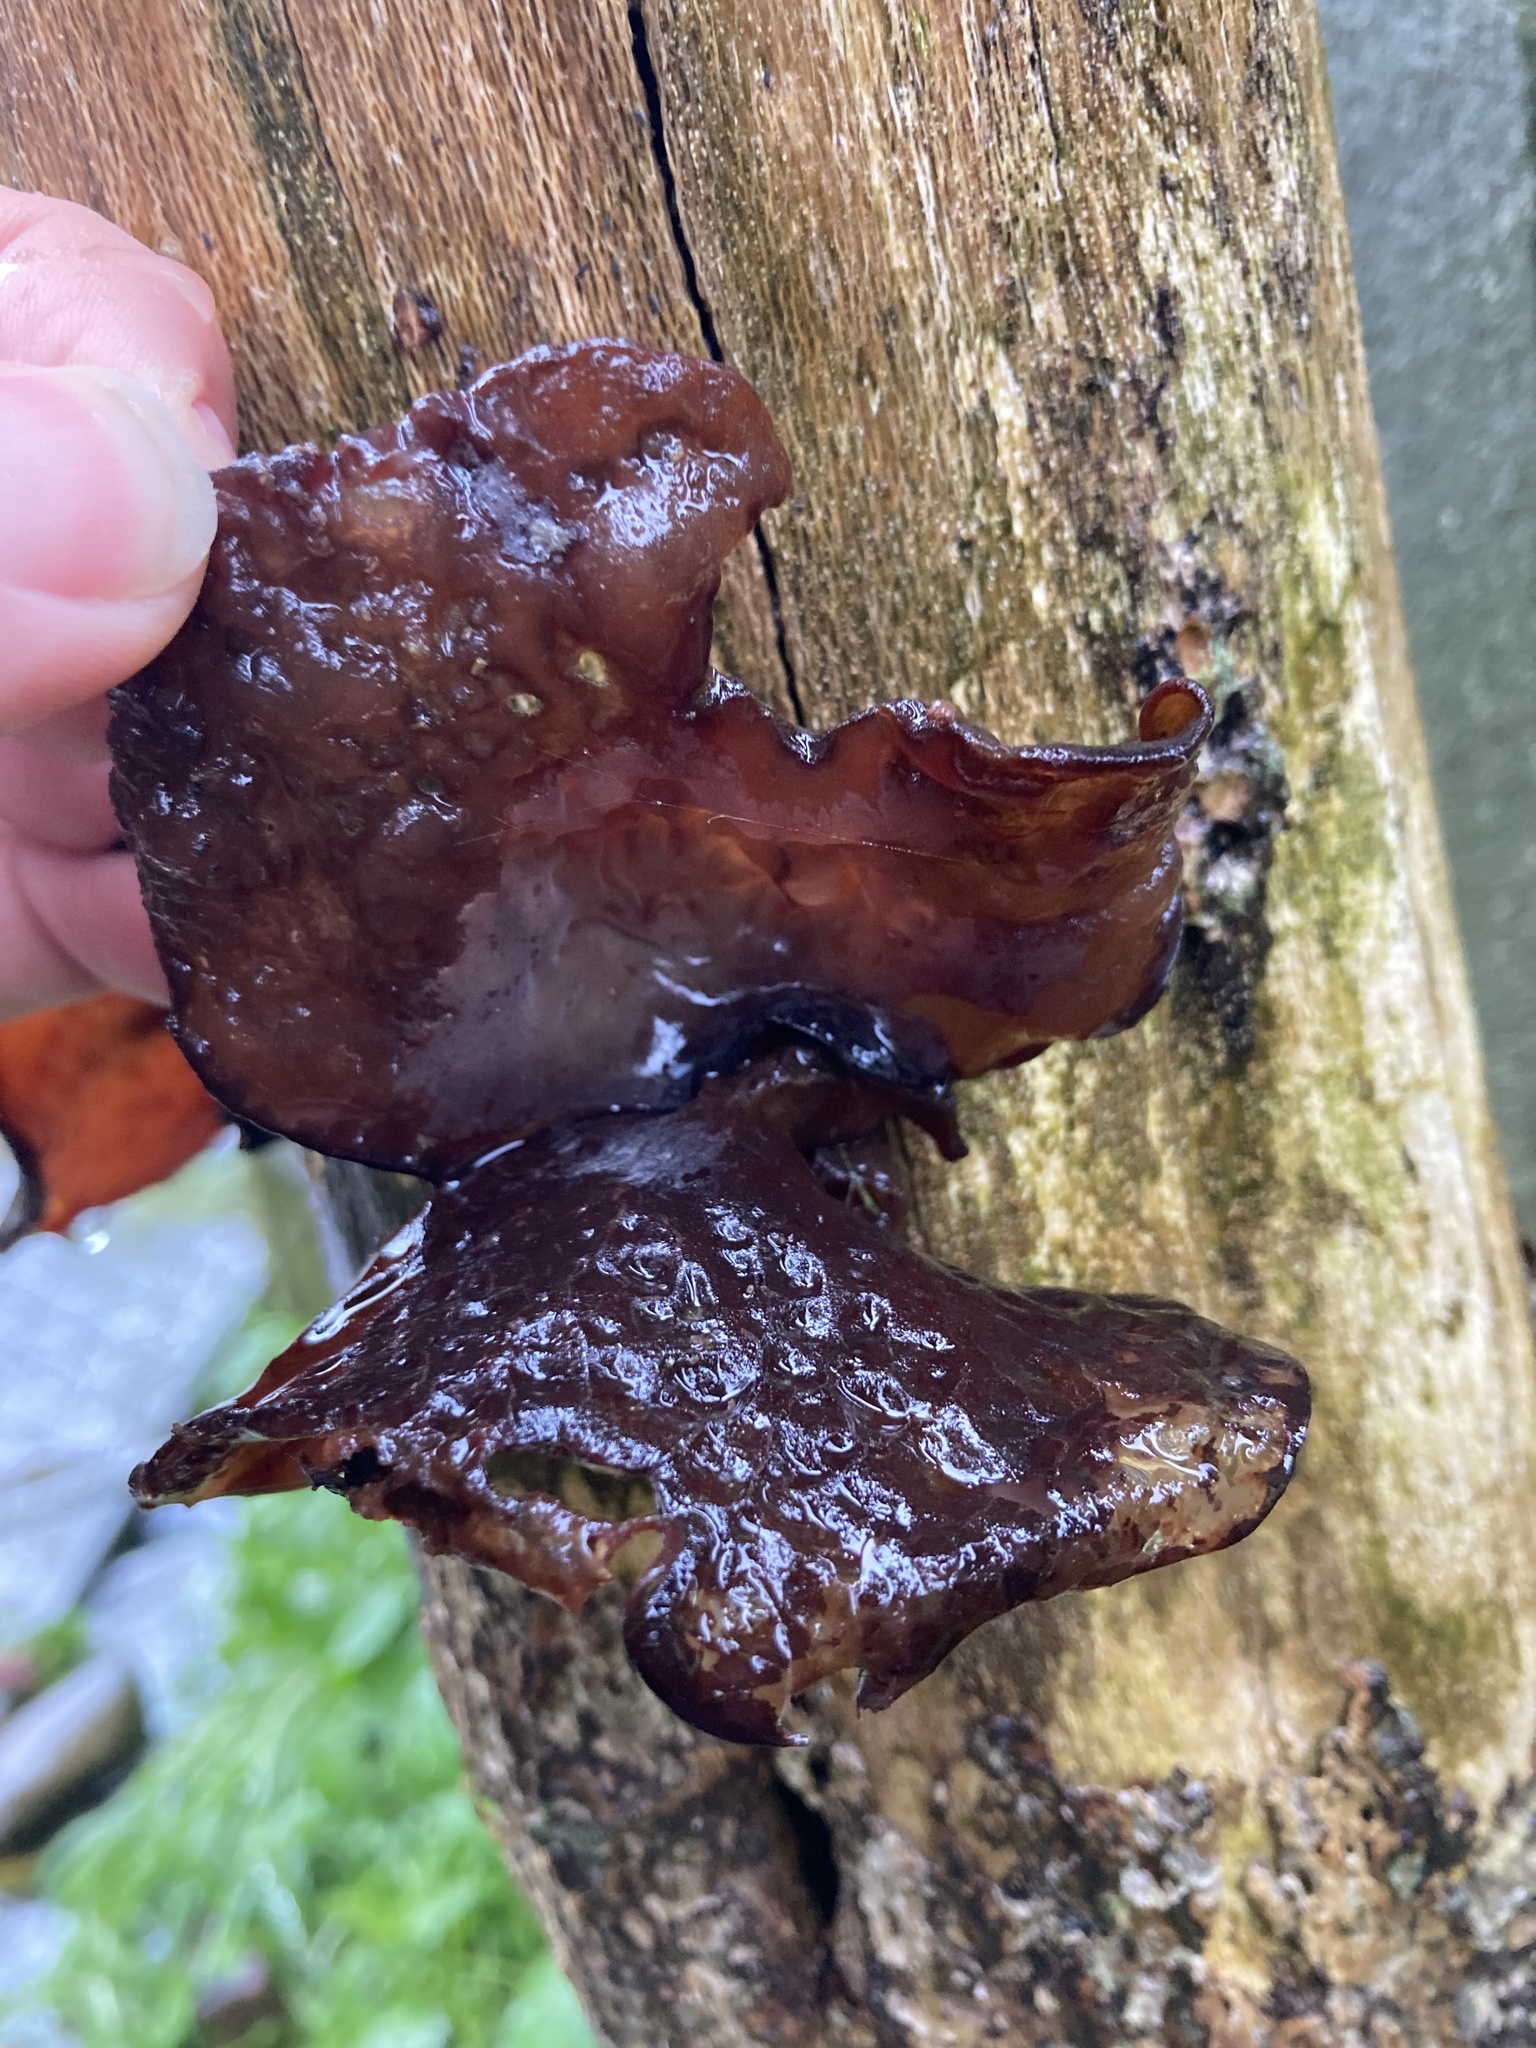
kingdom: Fungi
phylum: Basidiomycota
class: Agaricomycetes
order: Auriculariales
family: Auriculariaceae
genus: Auricularia
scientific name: Auricularia cornea
